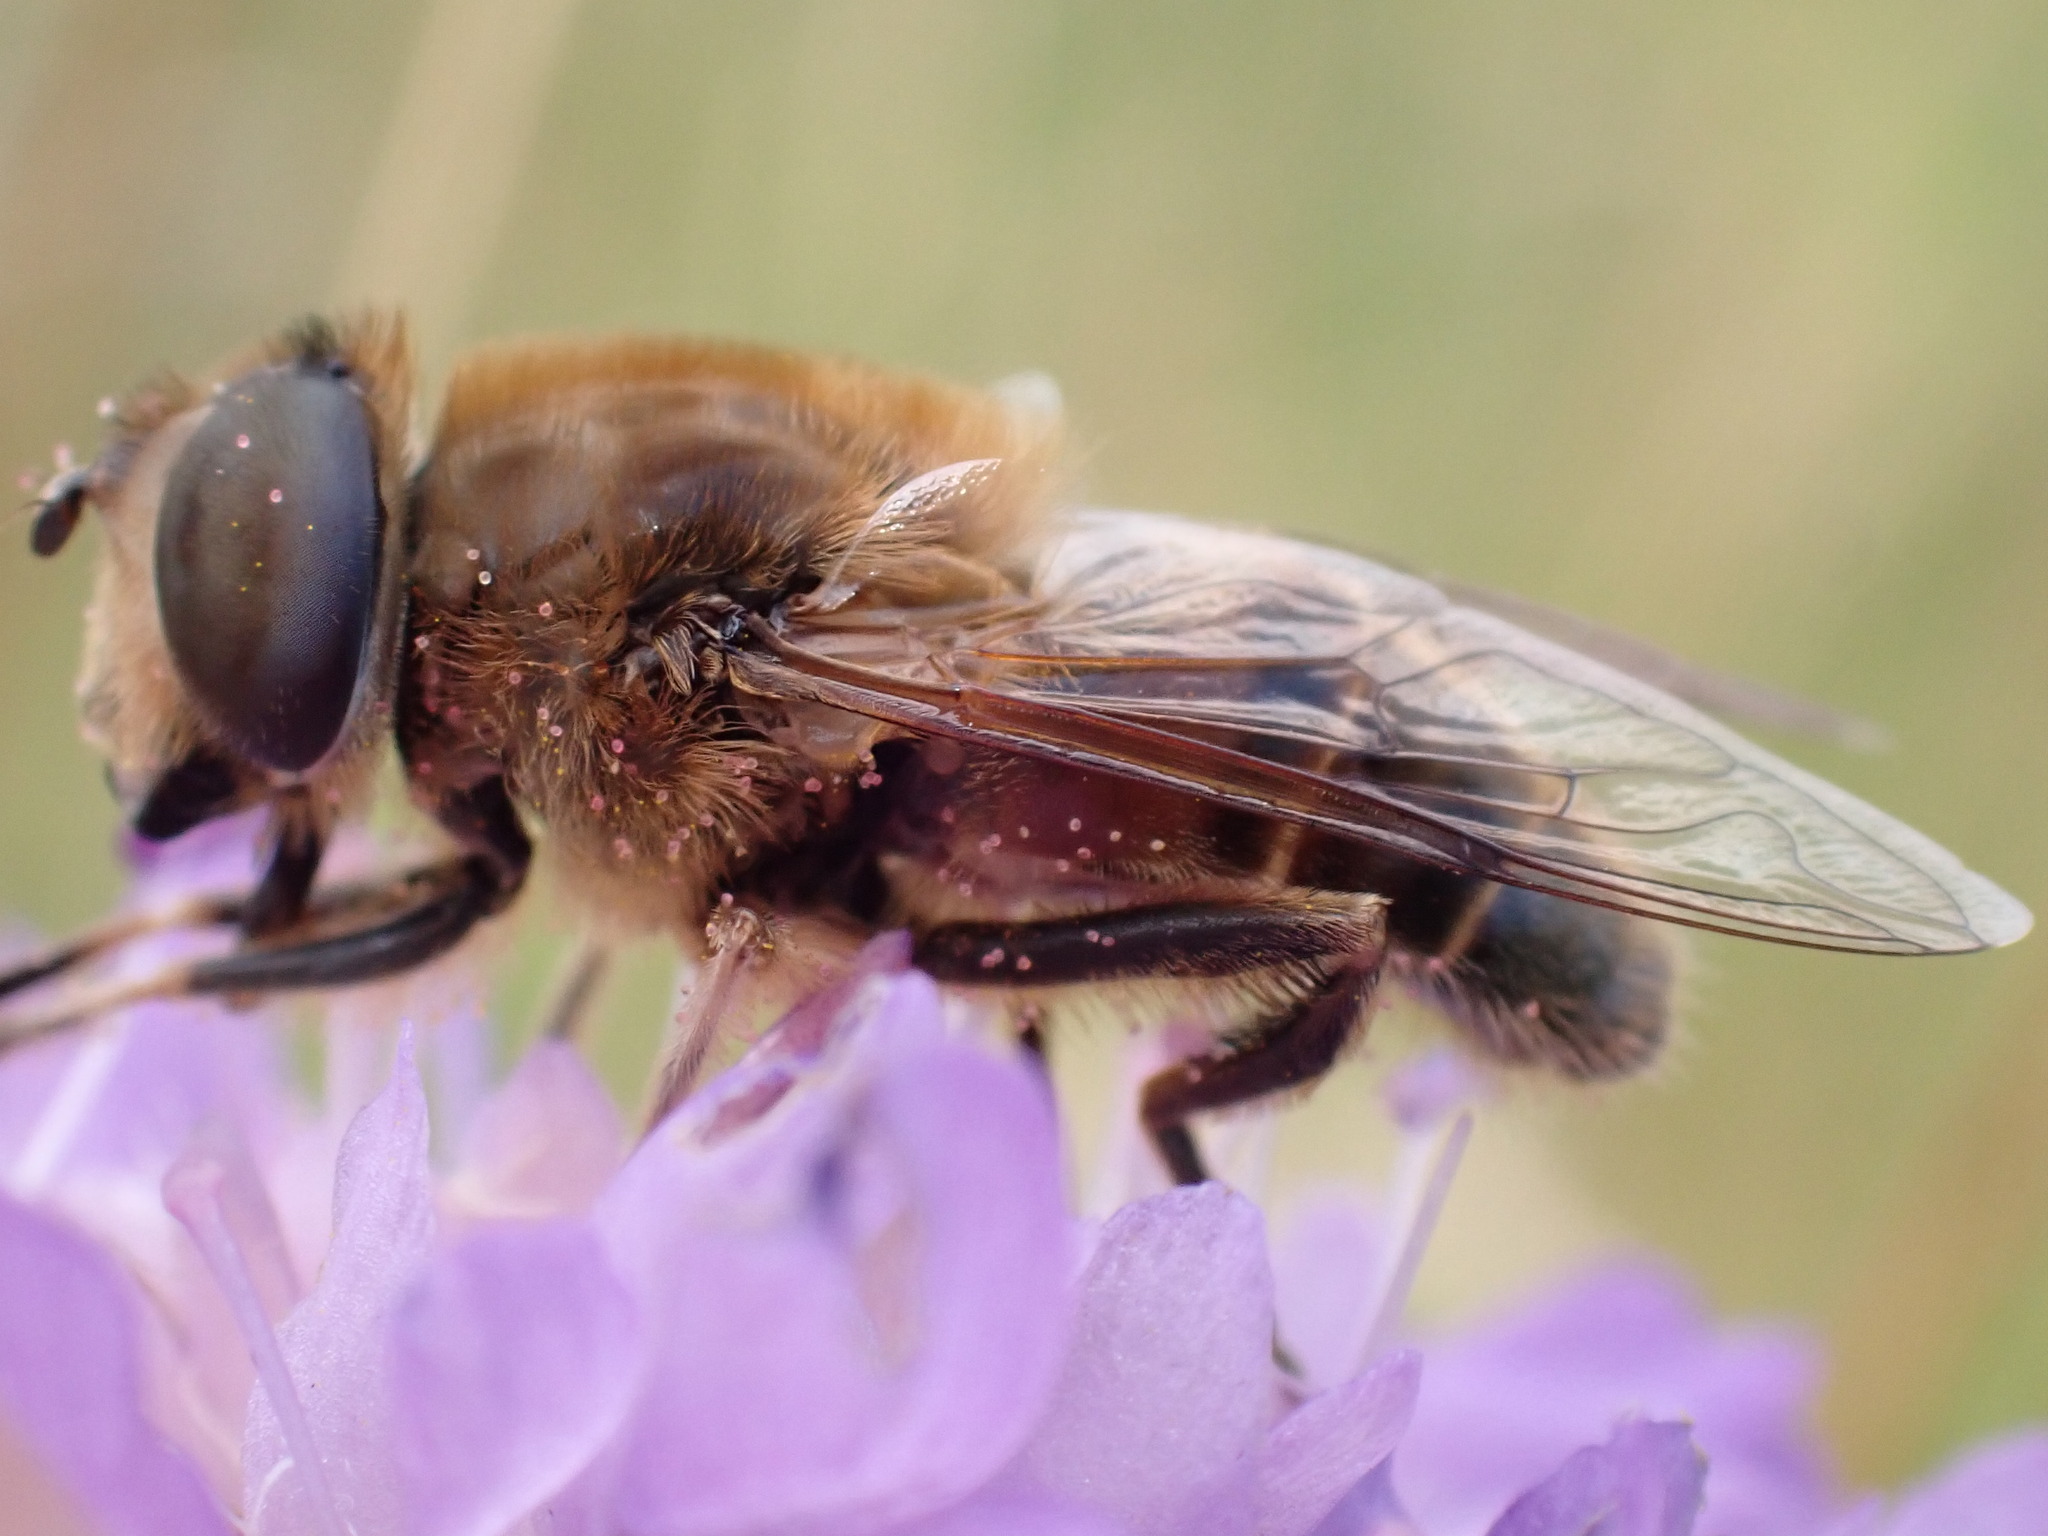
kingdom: Animalia
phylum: Arthropoda
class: Insecta
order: Diptera
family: Syrphidae
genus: Eristalis
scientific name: Eristalis tenax
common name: Drone fly
